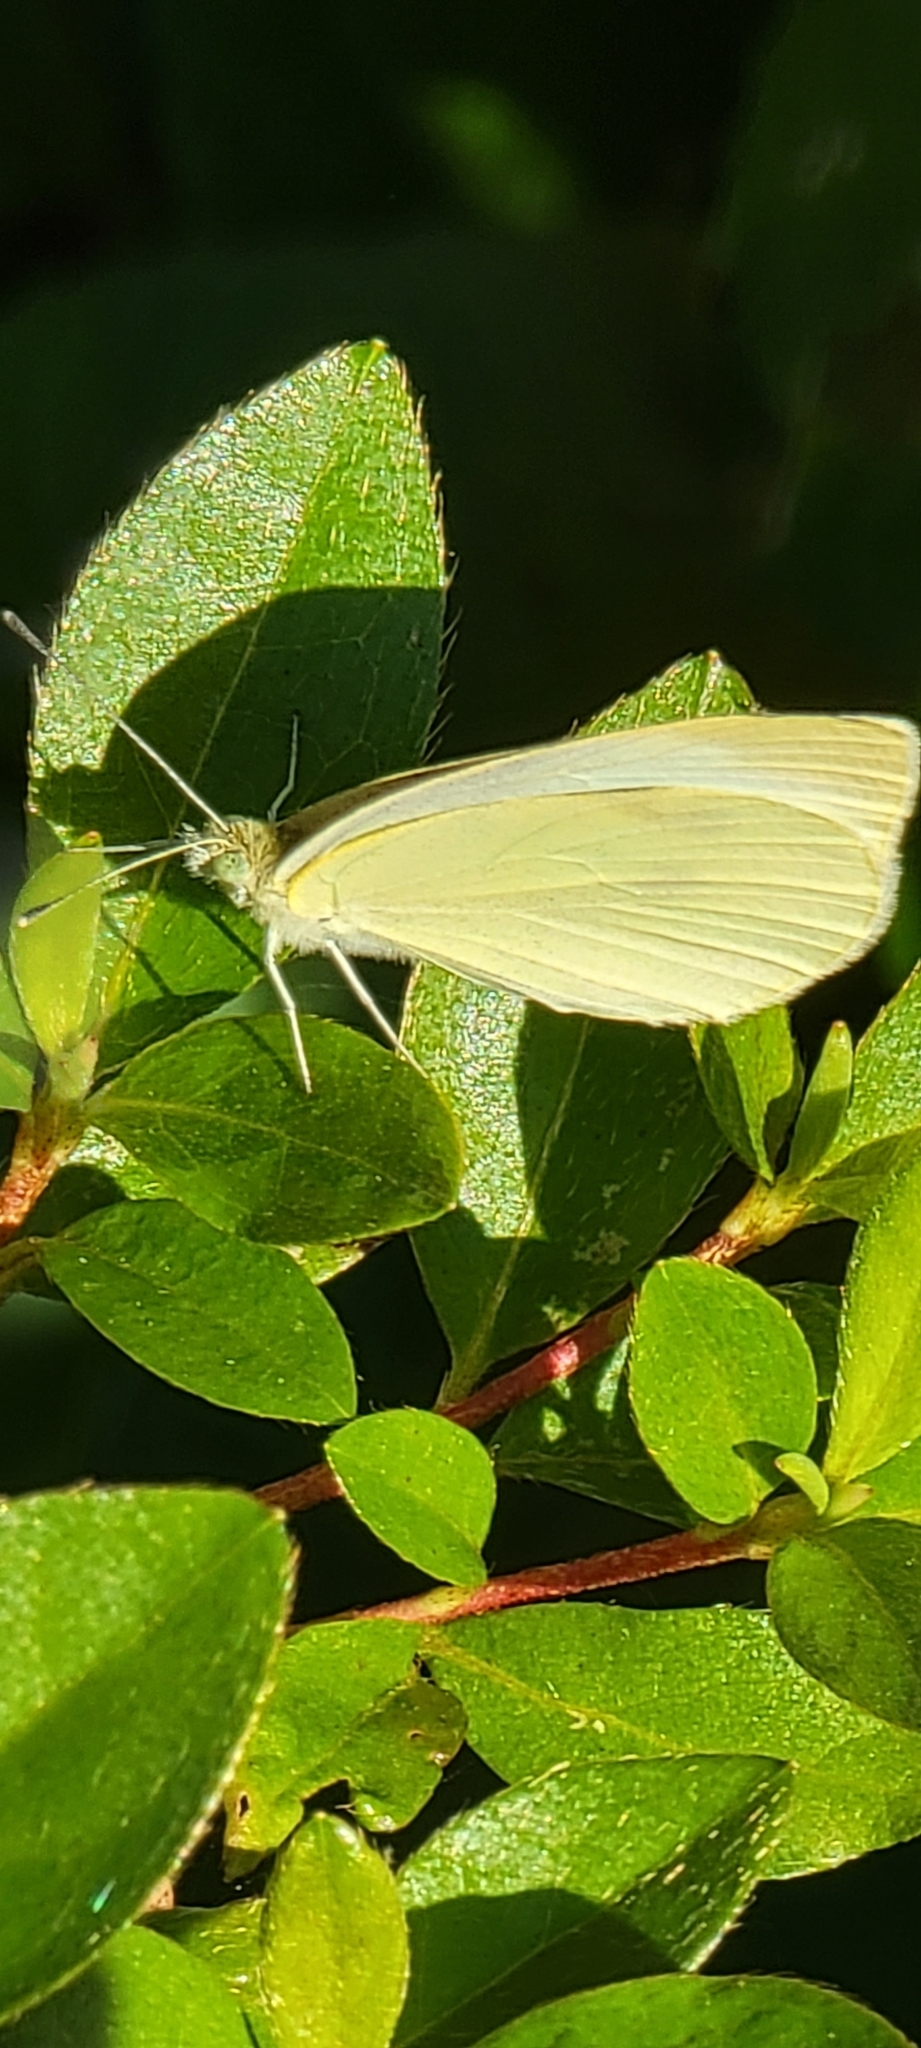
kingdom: Animalia
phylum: Arthropoda
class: Insecta
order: Lepidoptera
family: Pieridae
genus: Pieris
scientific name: Pieris rapae
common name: Small white
